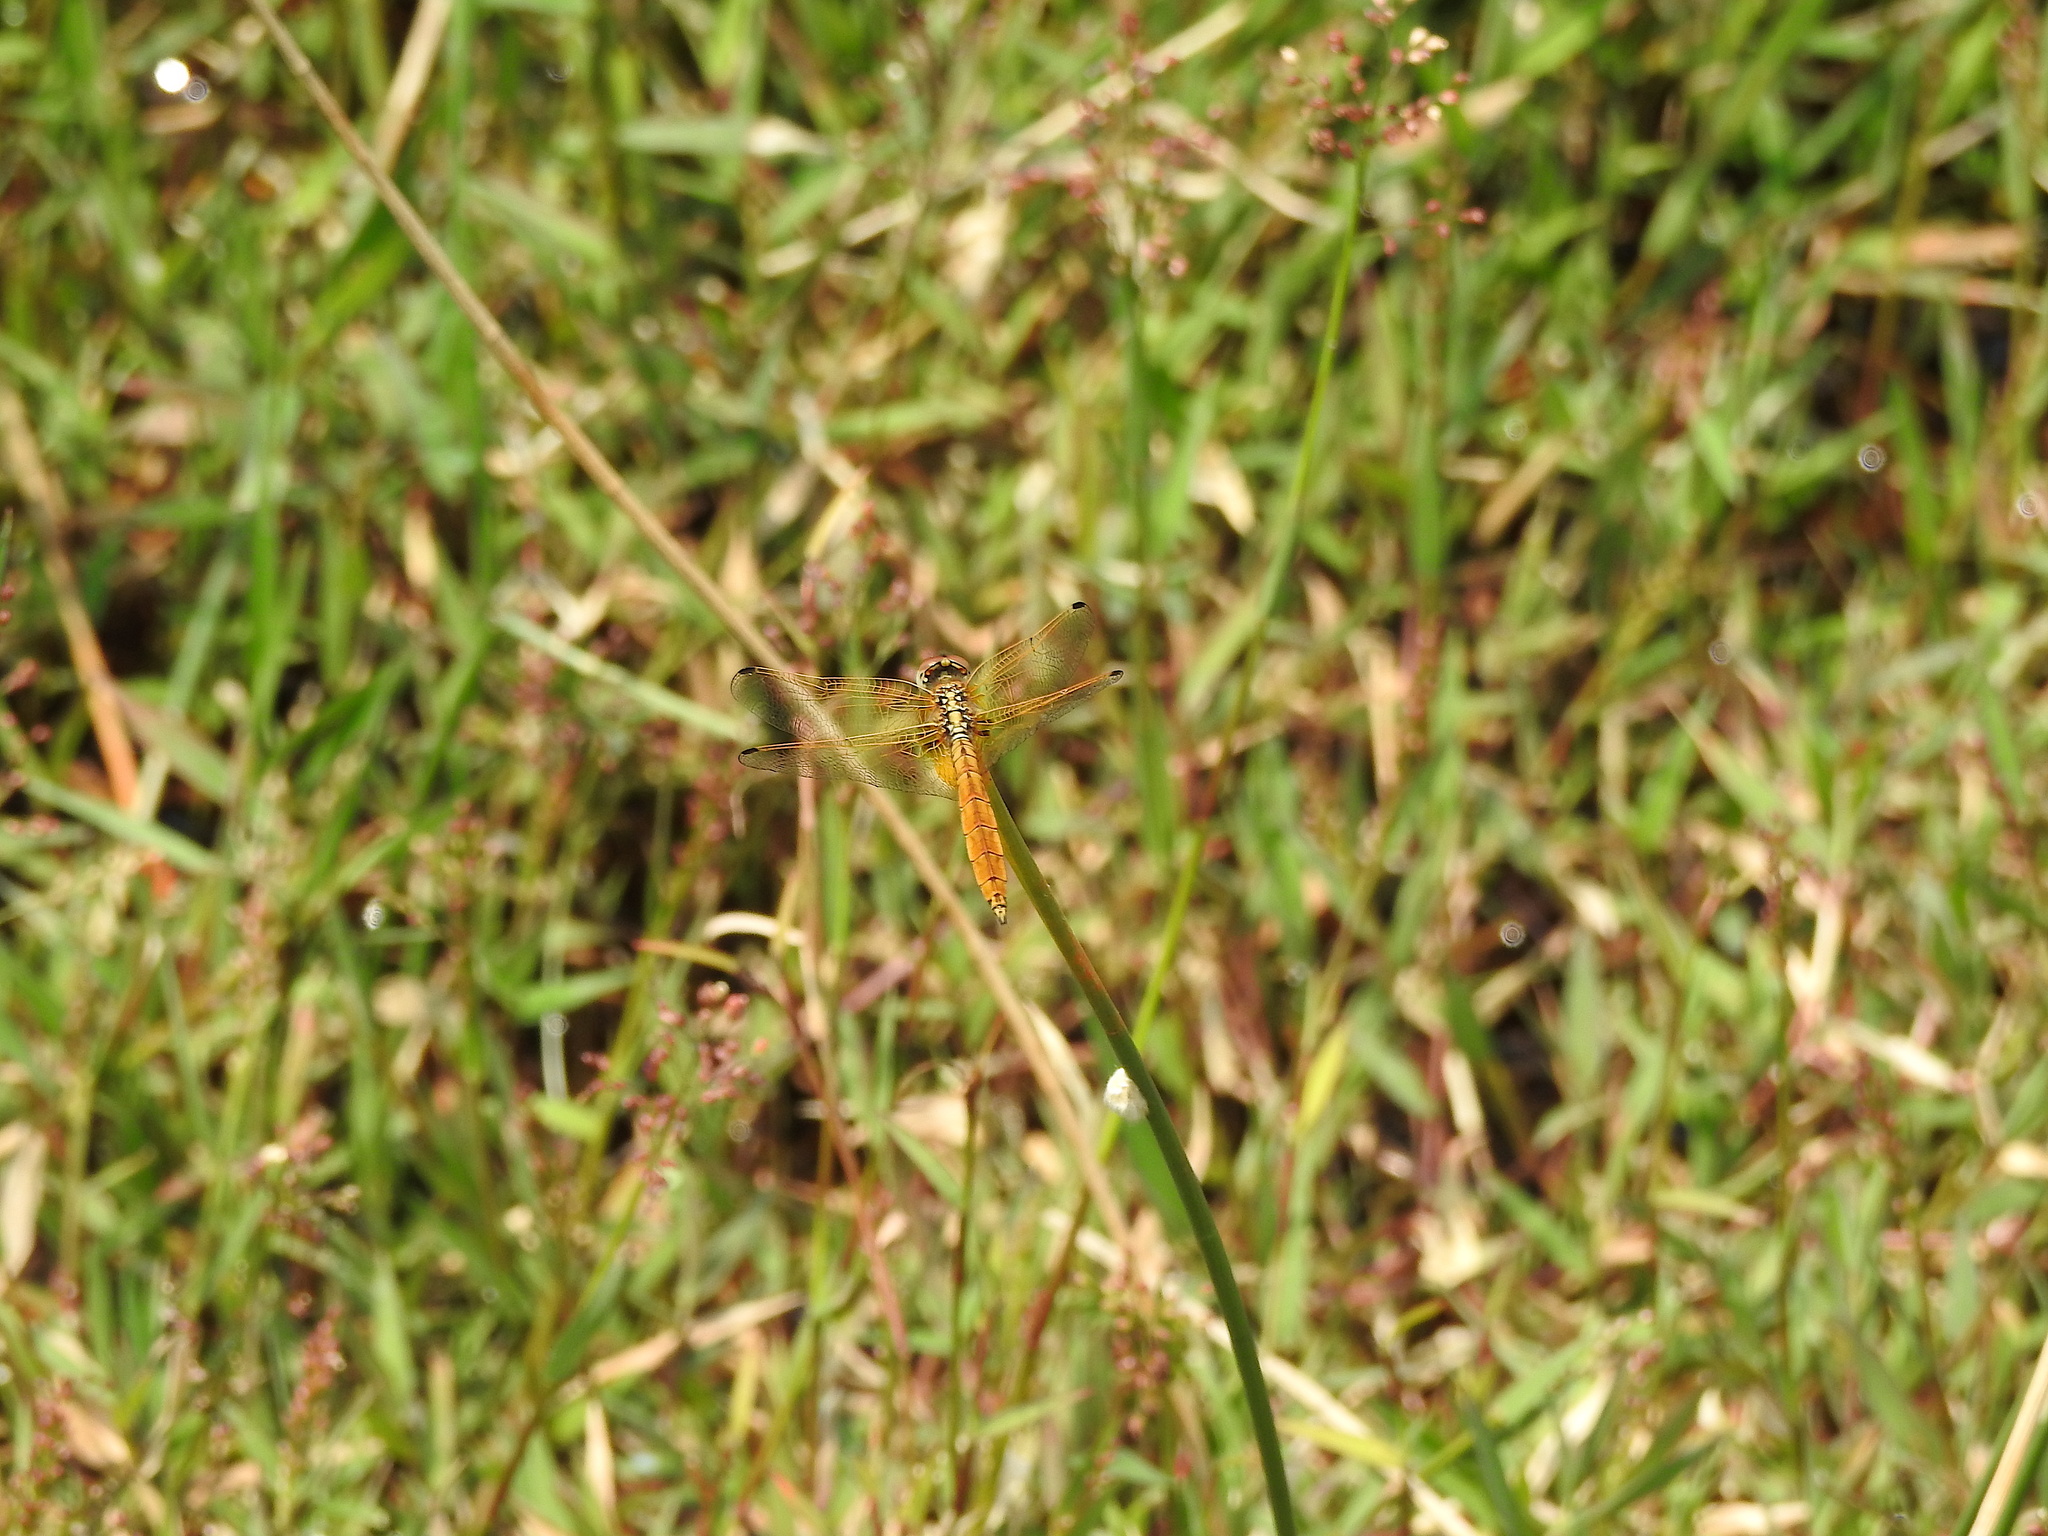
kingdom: Animalia
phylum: Arthropoda
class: Insecta
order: Odonata
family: Libellulidae
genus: Trithemis
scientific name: Trithemis aurora
